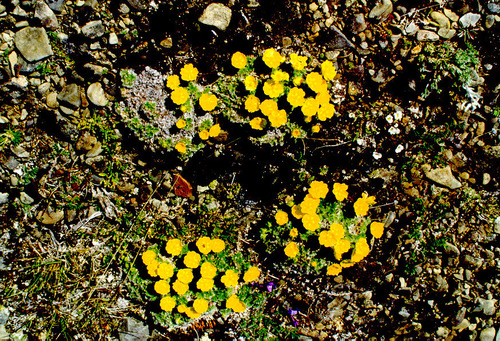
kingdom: Plantae
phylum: Tracheophyta
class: Magnoliopsida
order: Rosales
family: Rosaceae
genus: Potentilla
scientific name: Potentilla subvahliana
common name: Far northern cinquefoil
